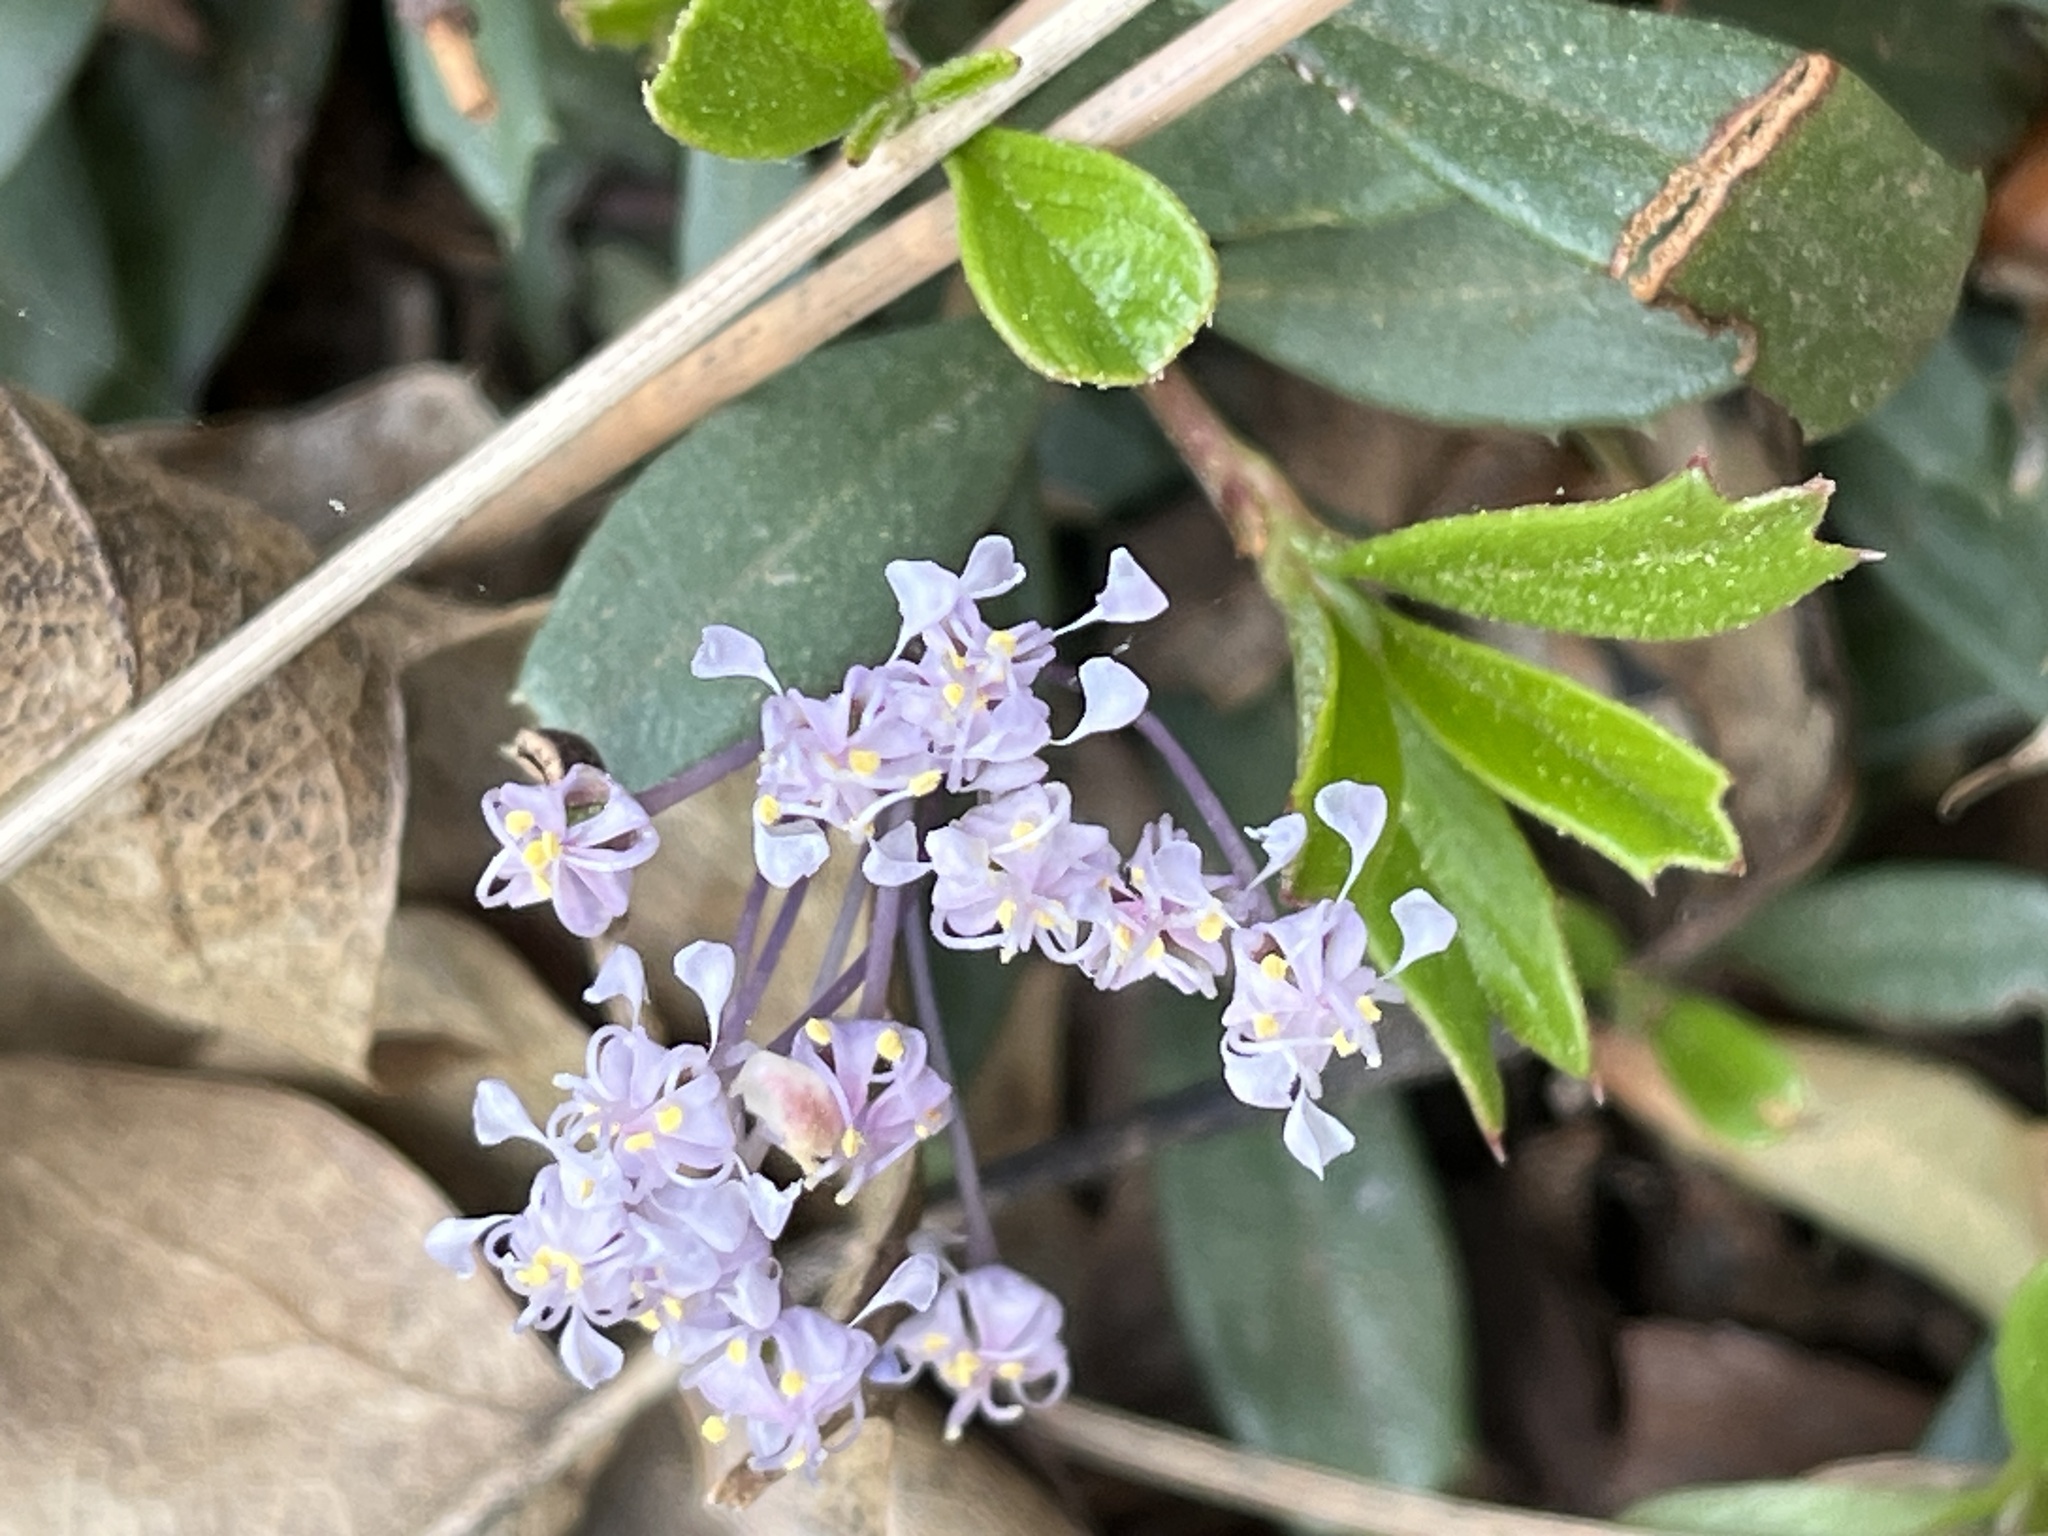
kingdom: Plantae
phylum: Tracheophyta
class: Magnoliopsida
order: Rosales
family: Rhamnaceae
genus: Ceanothus
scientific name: Ceanothus prostratus
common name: Mahala-mat
